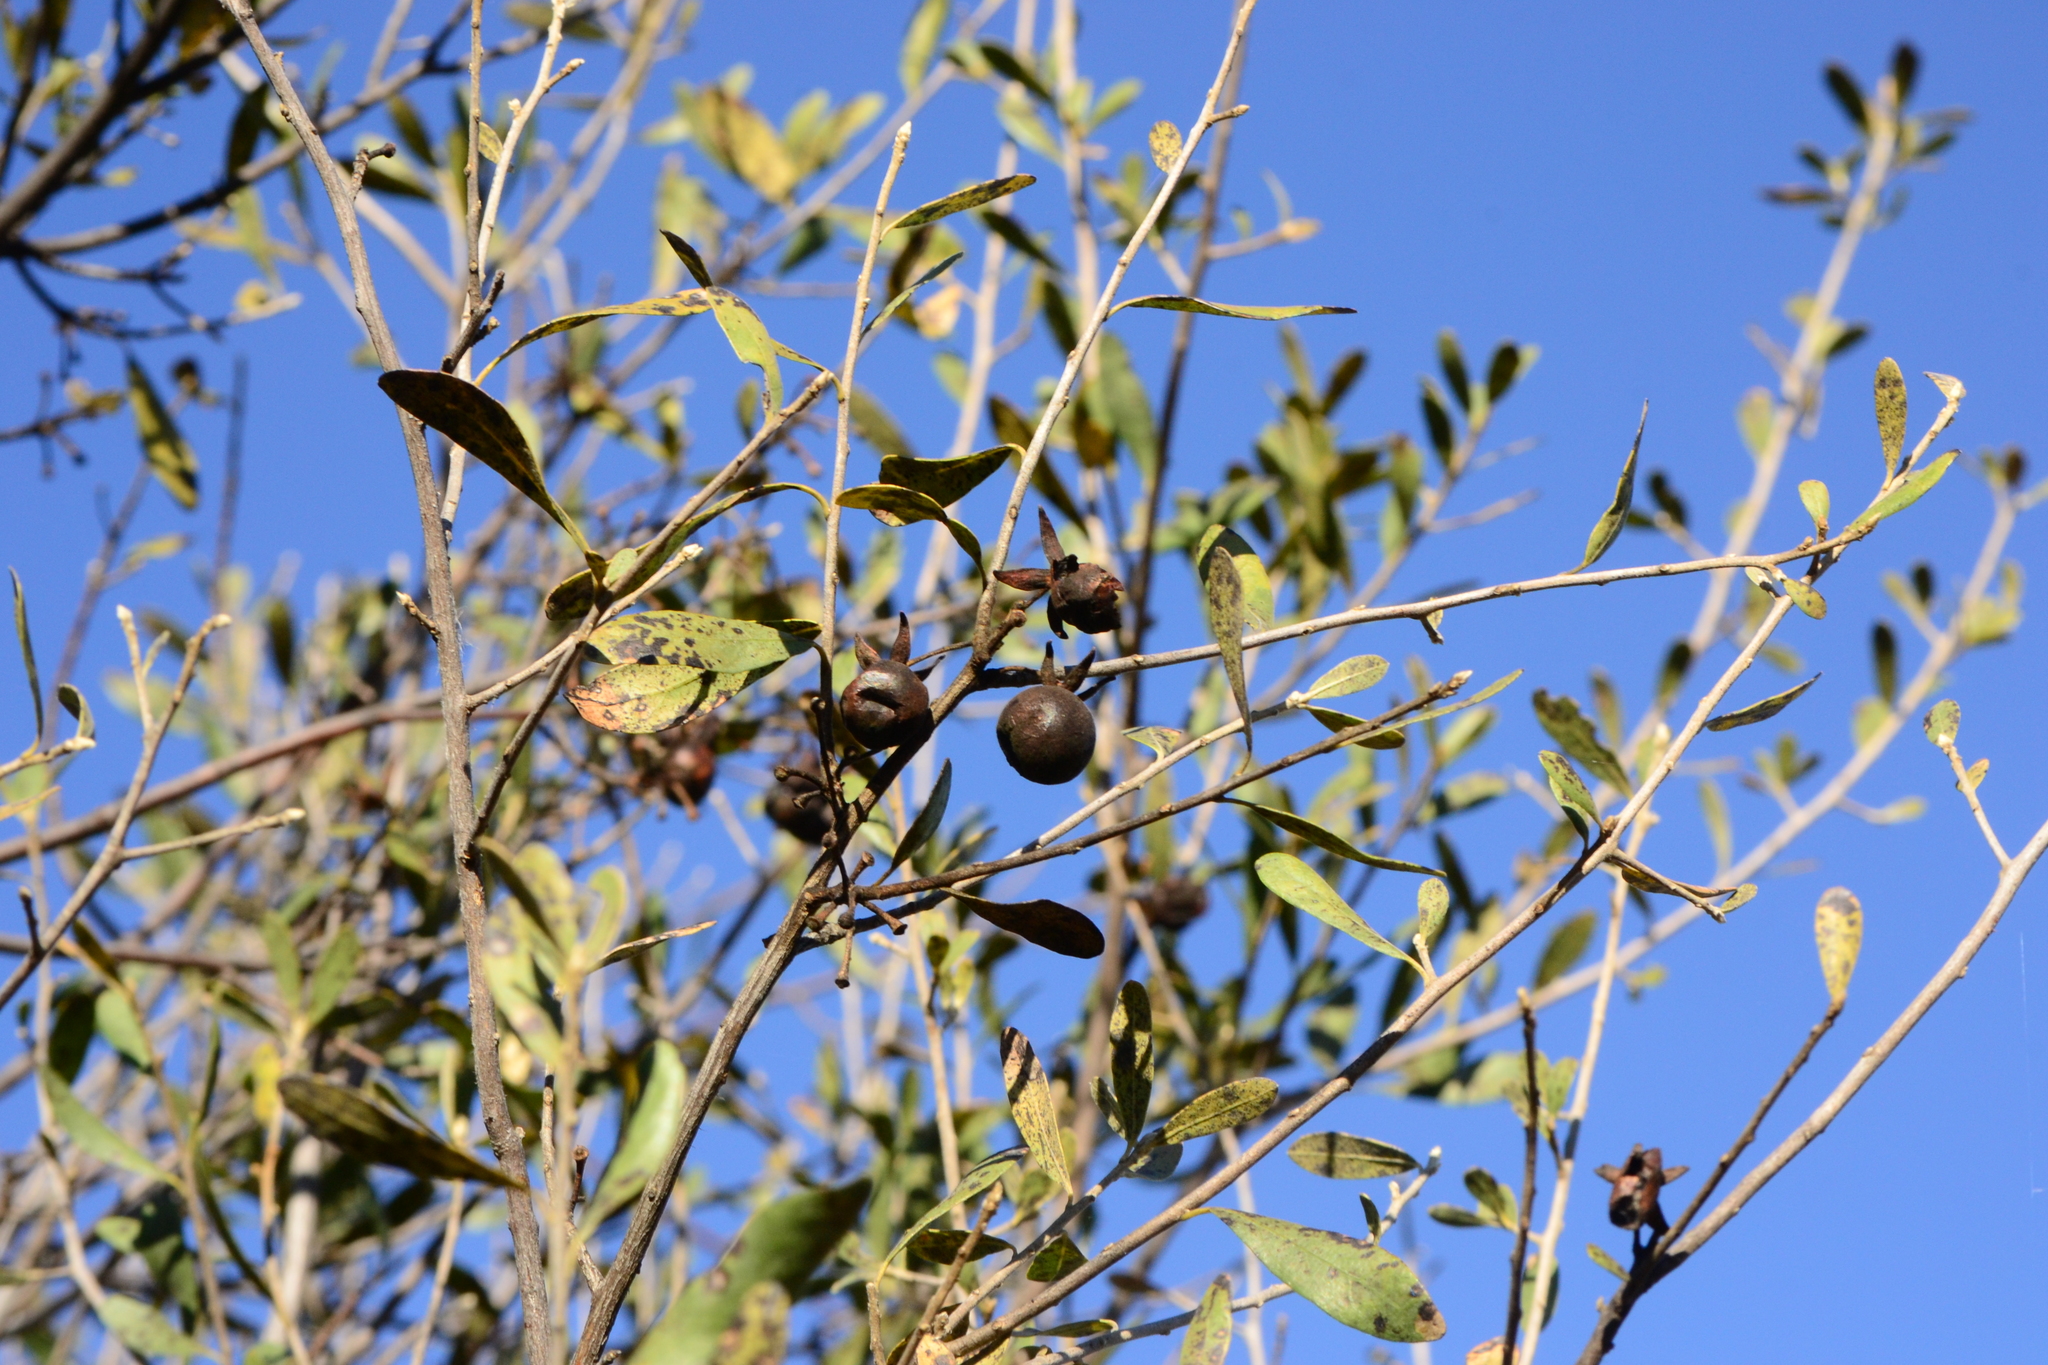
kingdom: Plantae
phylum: Tracheophyta
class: Magnoliopsida
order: Ericales
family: Ebenaceae
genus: Diospyros
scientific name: Diospyros lycioides
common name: Red star apple
